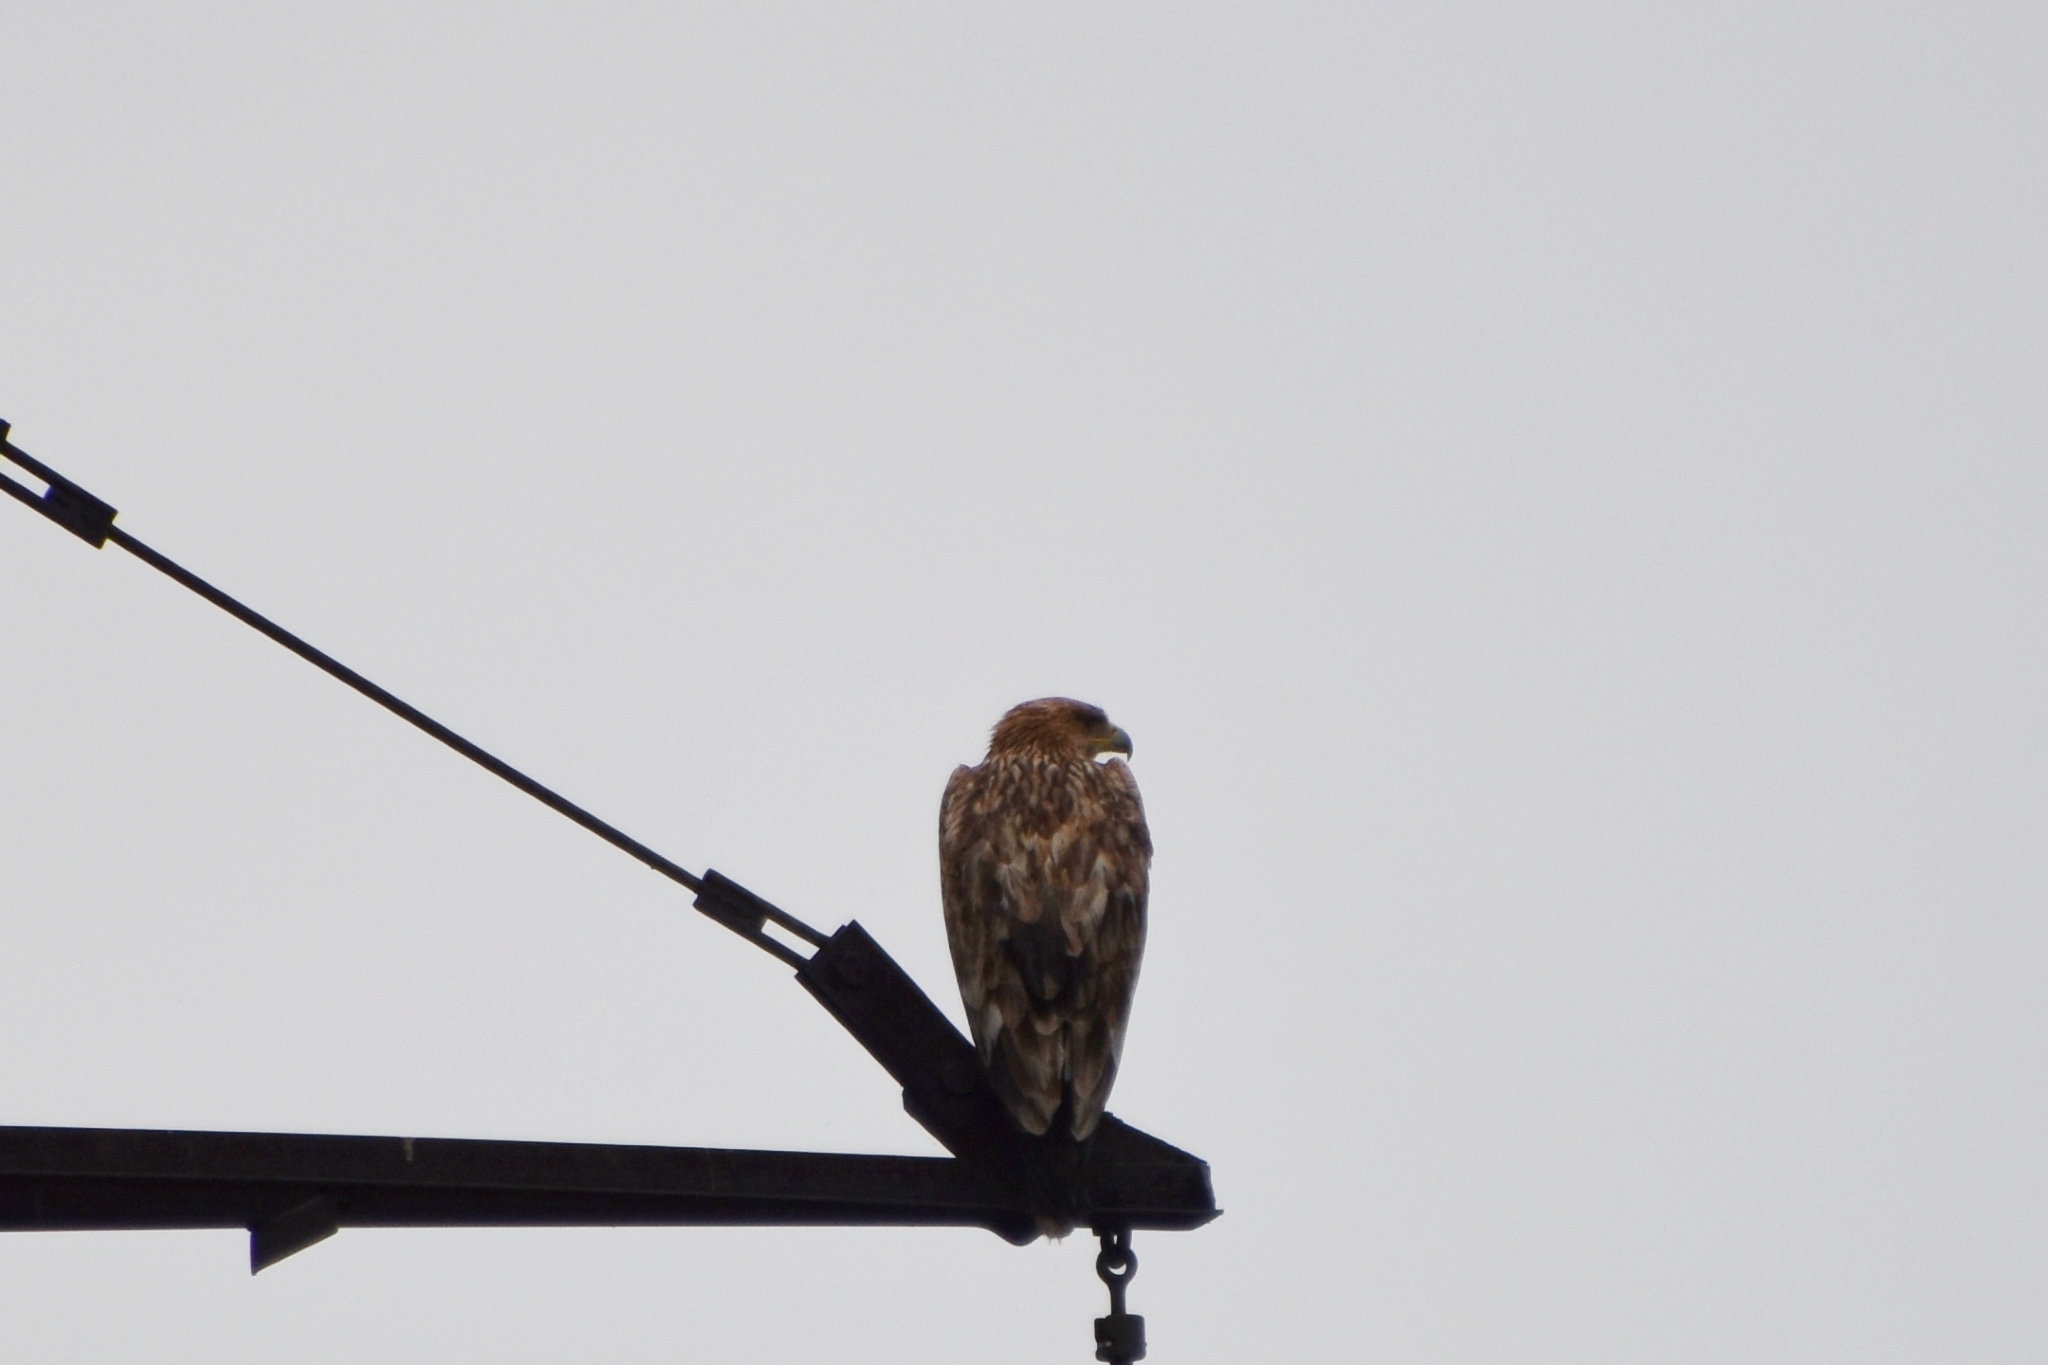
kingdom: Animalia
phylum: Chordata
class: Aves
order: Accipitriformes
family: Accipitridae
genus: Aquila
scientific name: Aquila heliaca
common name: Eastern imperial eagle
